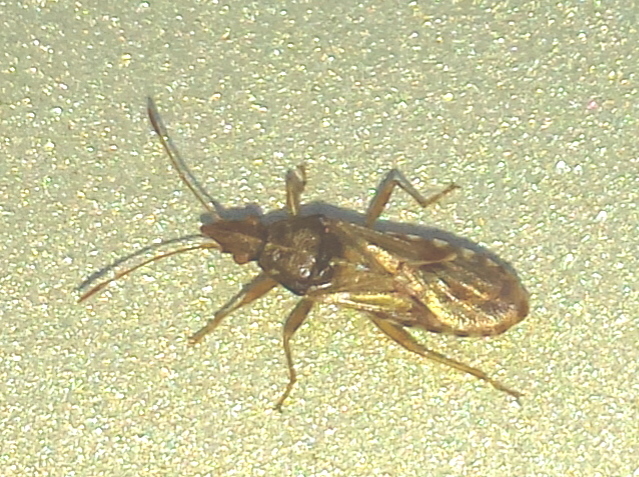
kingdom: Animalia
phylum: Arthropoda
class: Insecta
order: Hemiptera
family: Lygaeidae
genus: Belonochilus
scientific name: Belonochilus numenius
